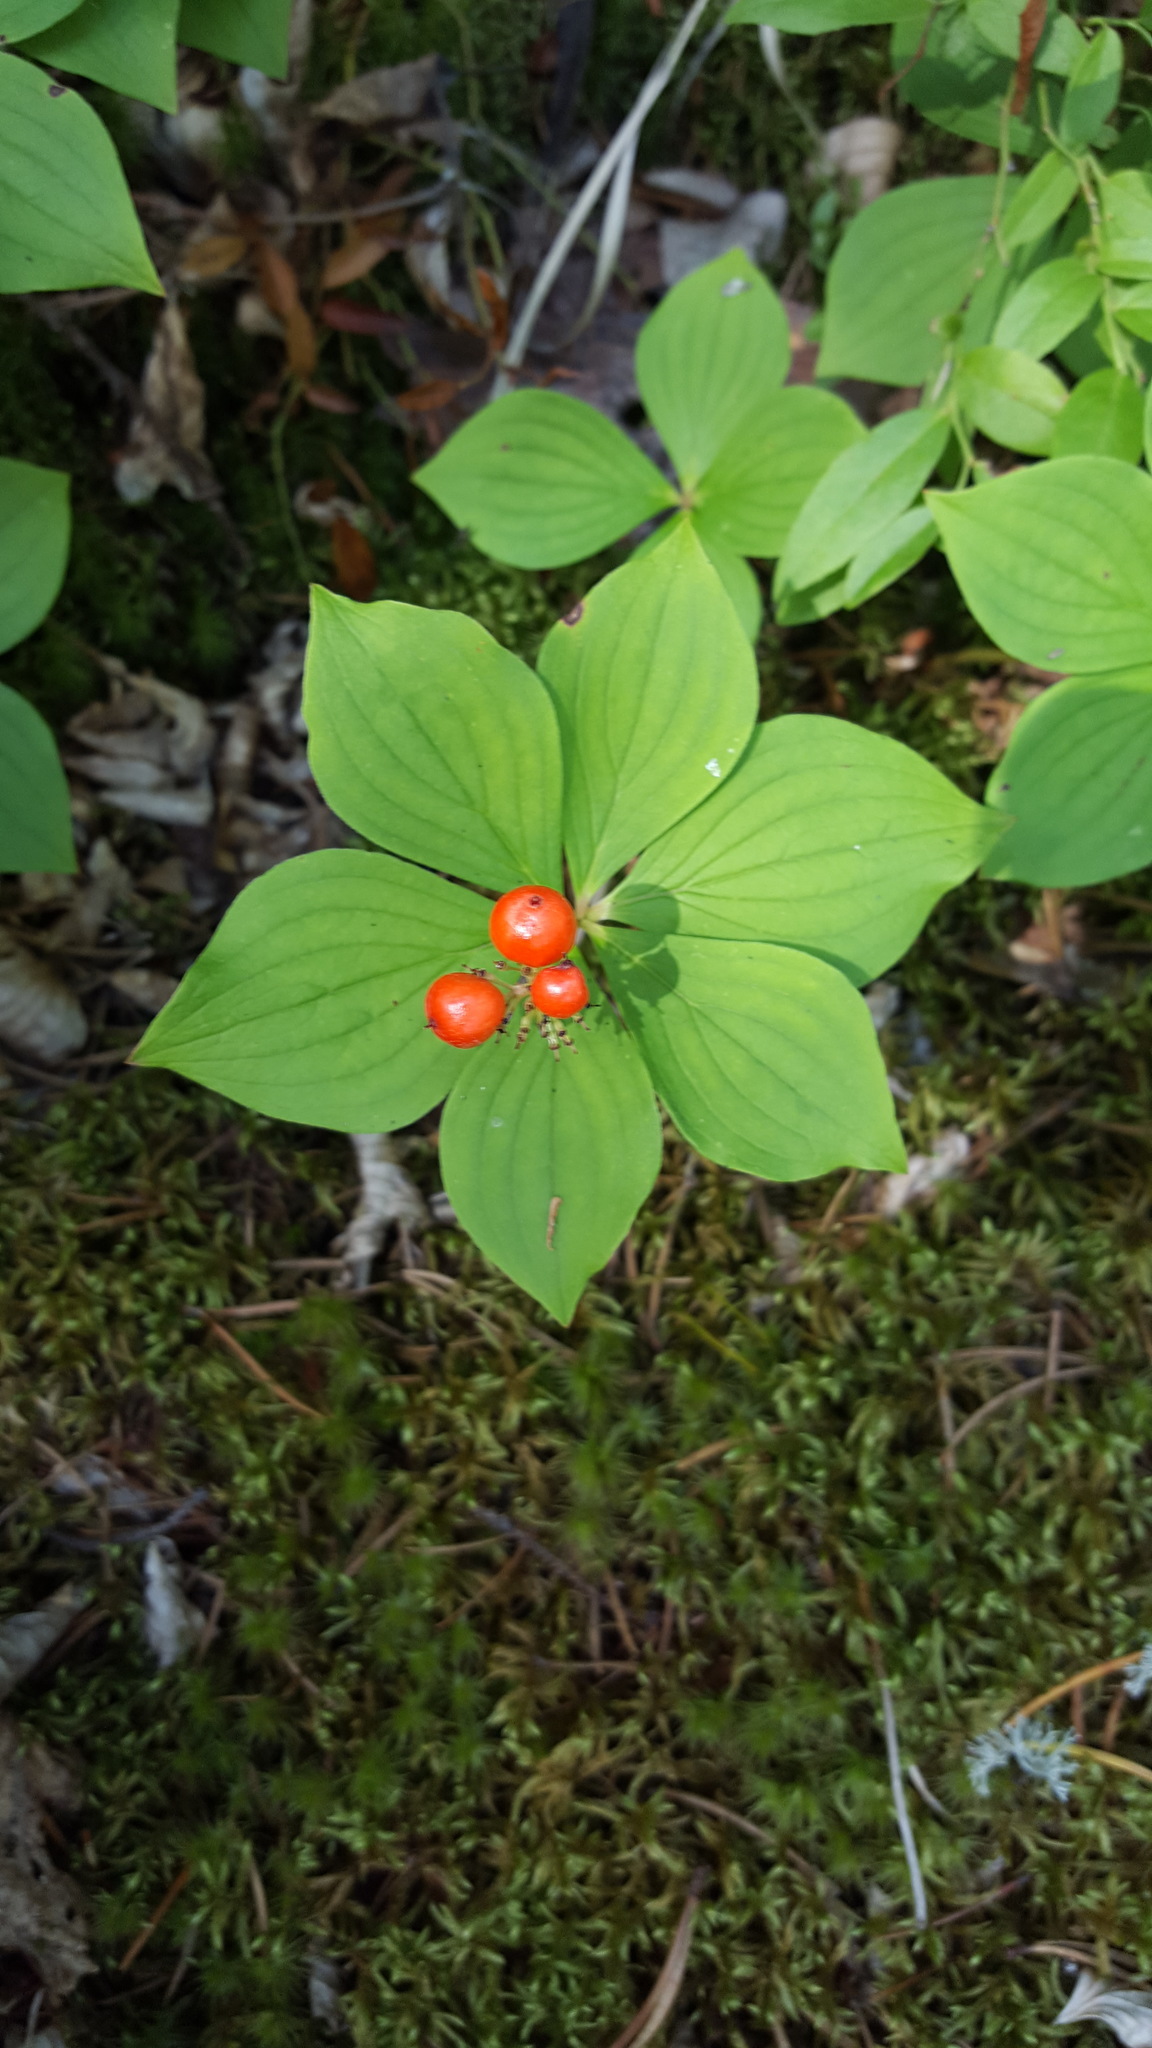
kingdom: Plantae
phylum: Tracheophyta
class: Magnoliopsida
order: Cornales
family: Cornaceae
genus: Cornus
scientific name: Cornus canadensis
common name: Creeping dogwood
